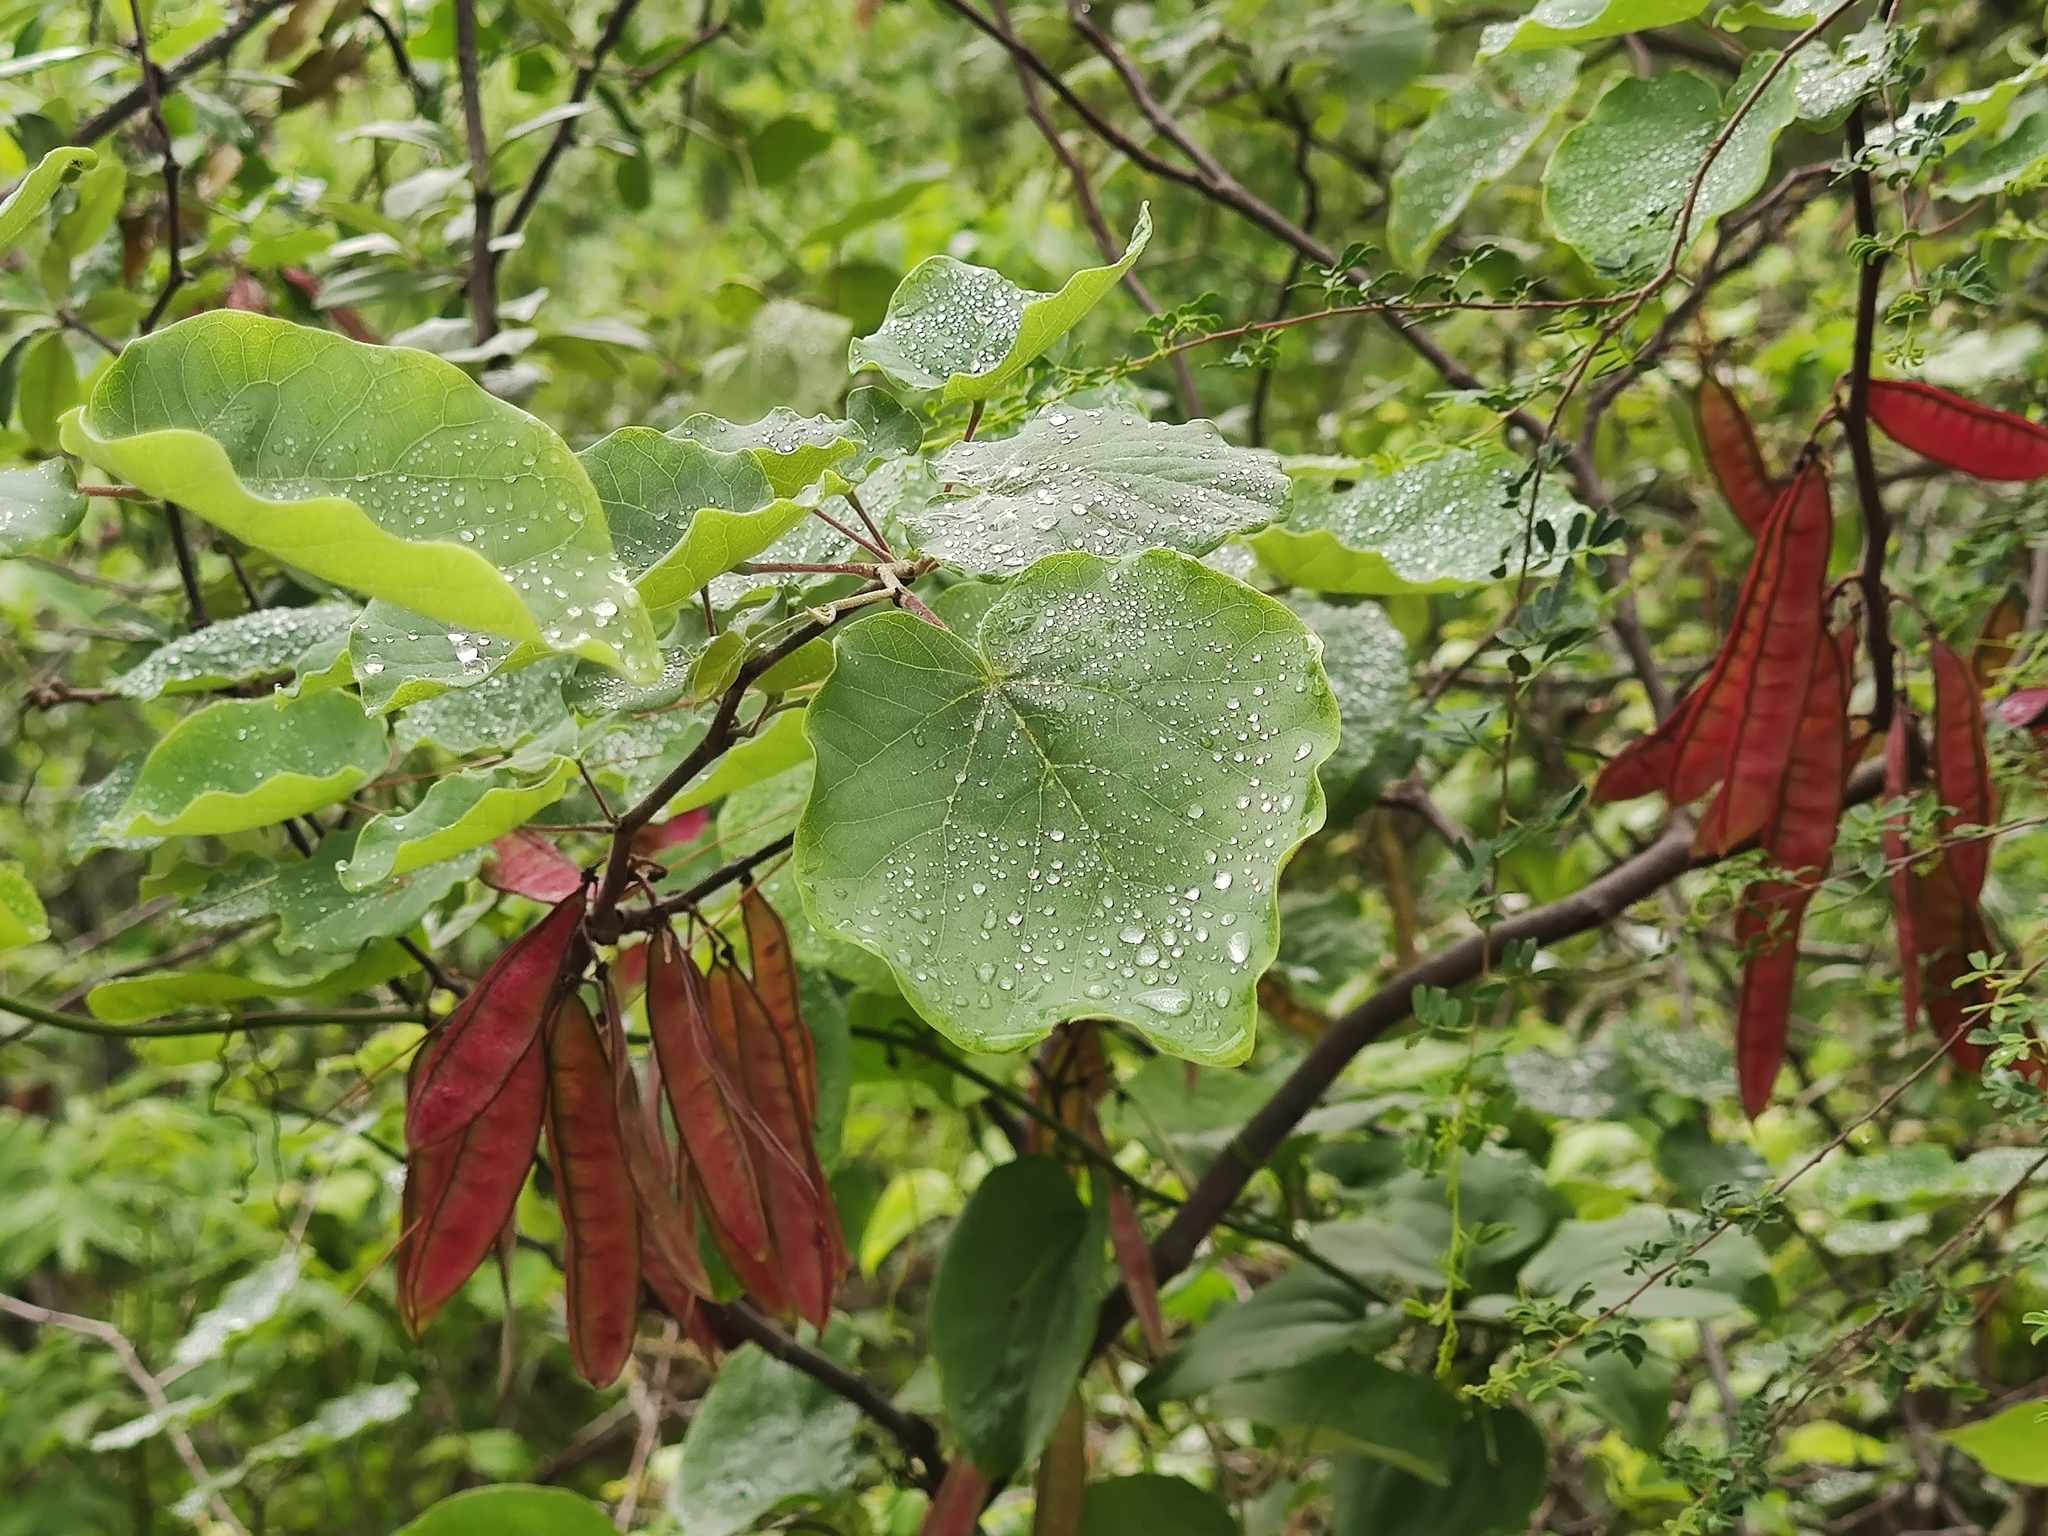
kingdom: Plantae
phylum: Tracheophyta
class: Magnoliopsida
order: Fabales
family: Fabaceae
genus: Cercis
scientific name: Cercis canadensis
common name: Eastern redbud
